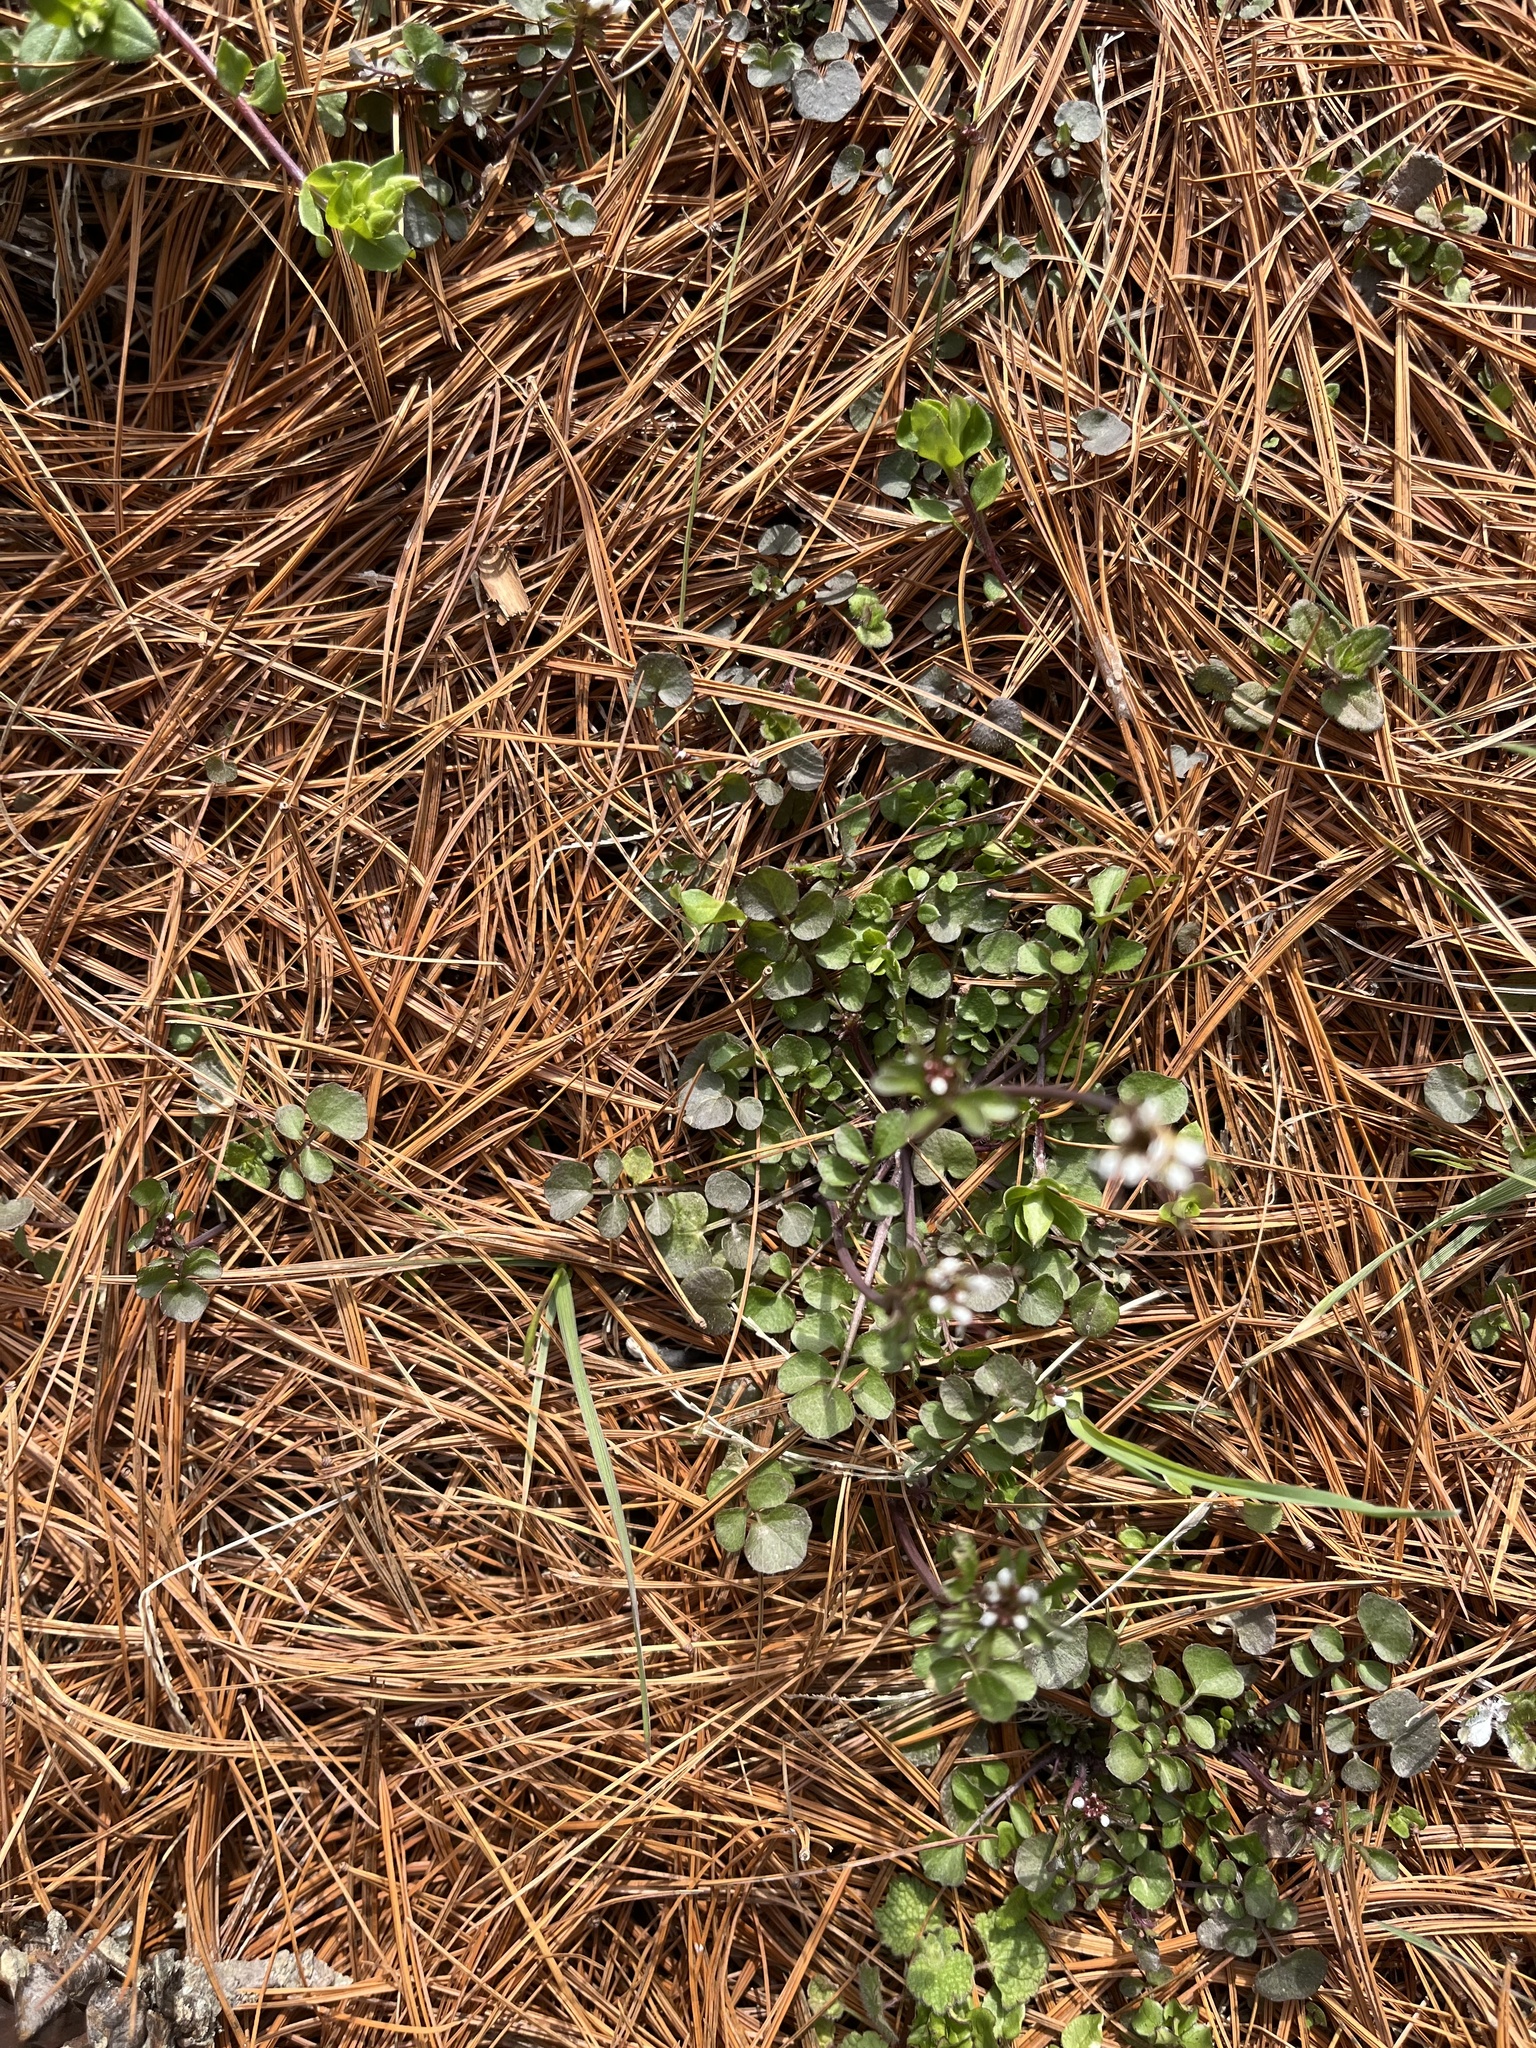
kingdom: Plantae
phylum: Tracheophyta
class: Magnoliopsida
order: Brassicales
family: Brassicaceae
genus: Cardamine
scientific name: Cardamine hirsuta
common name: Hairy bittercress
